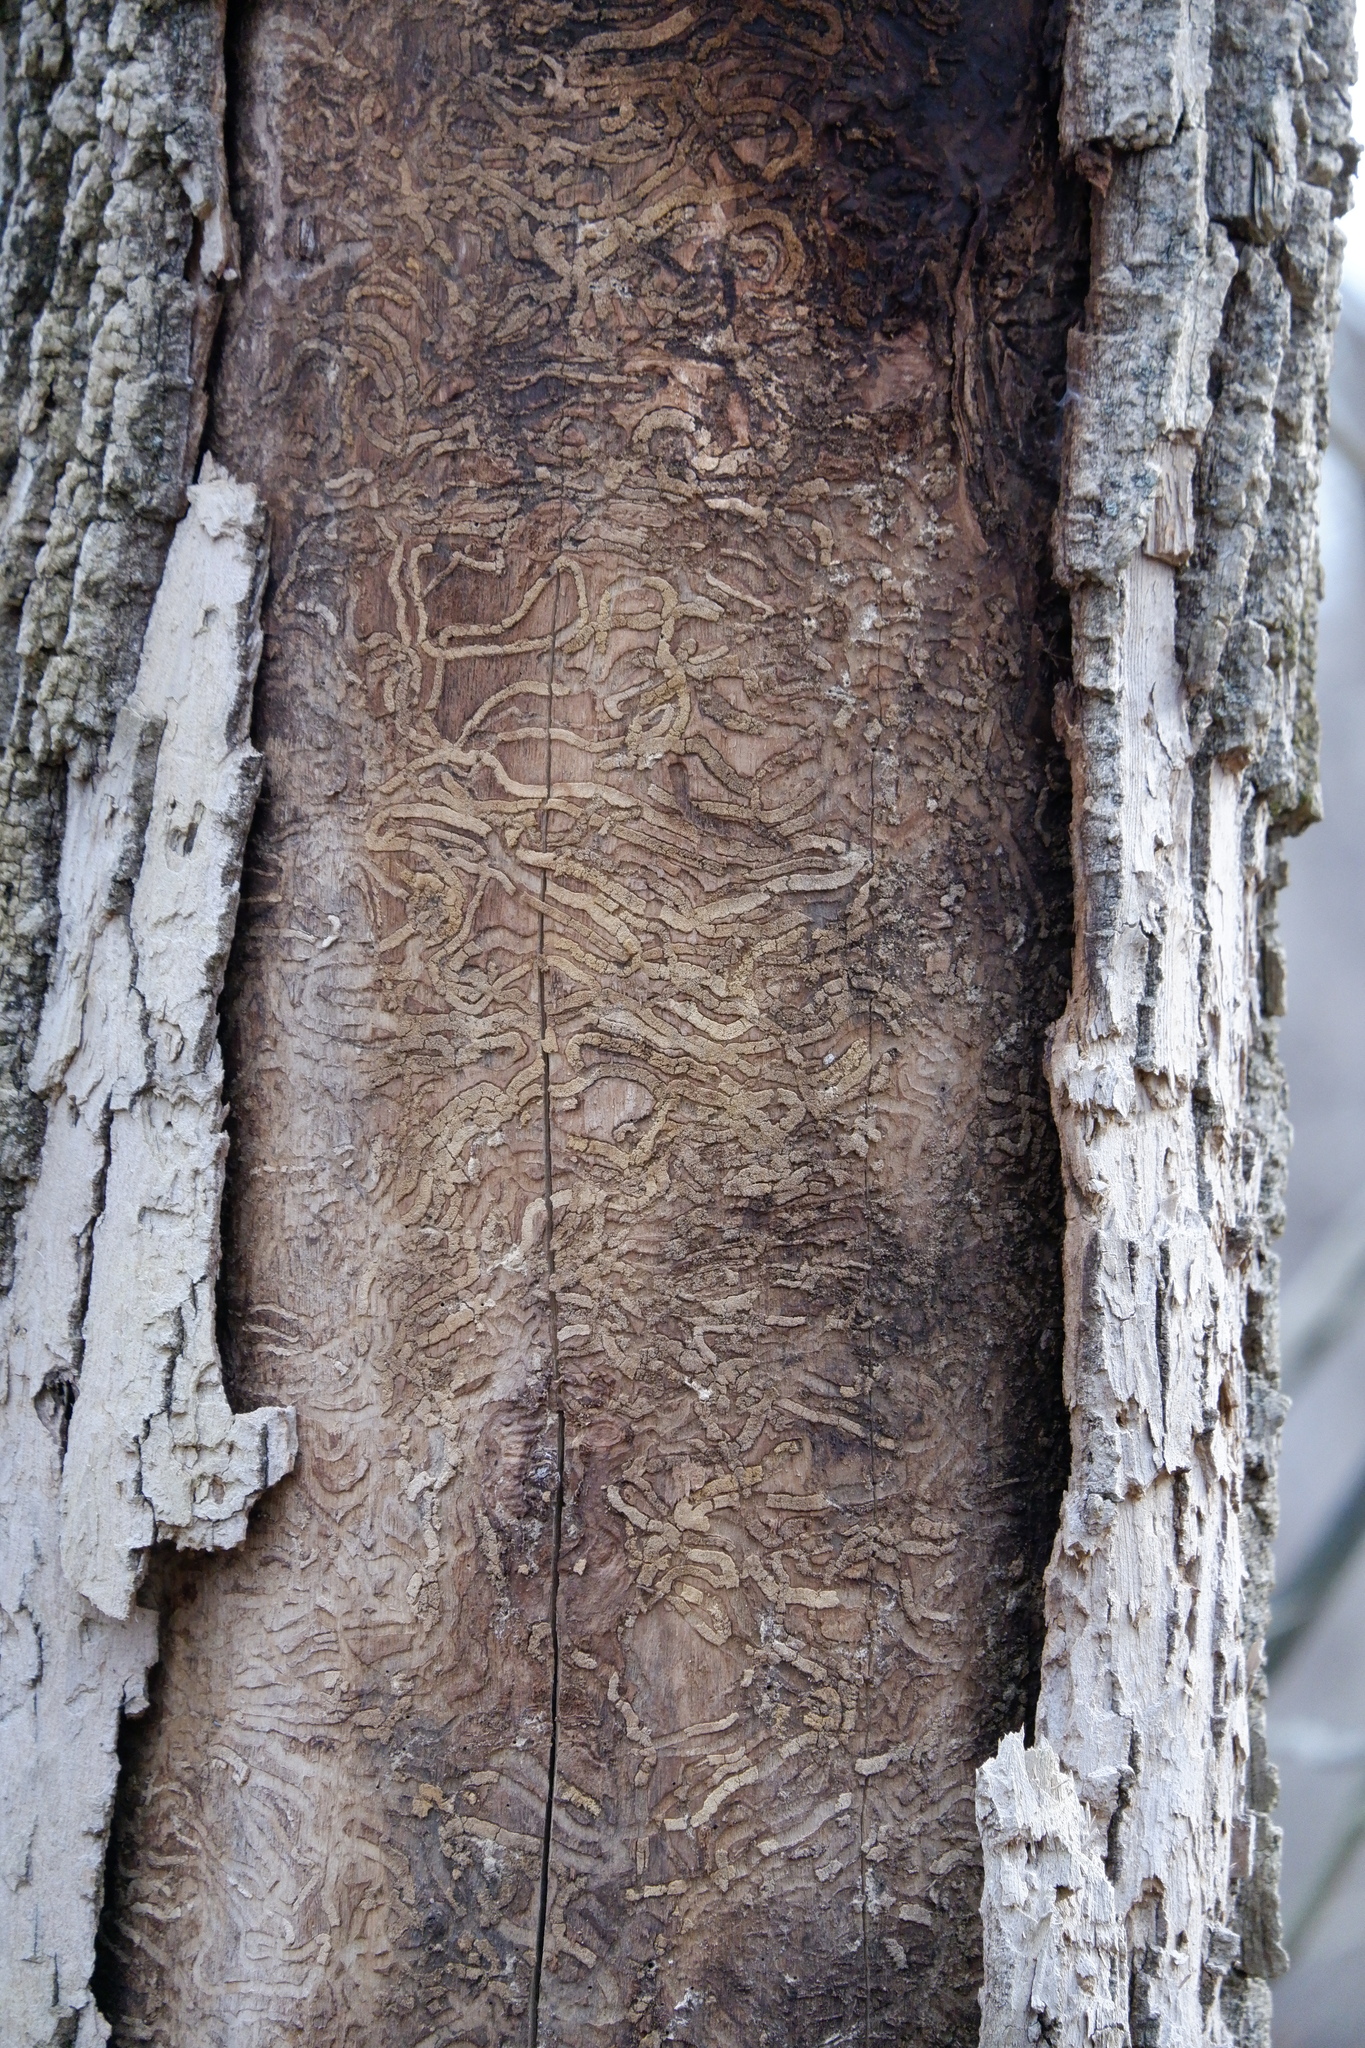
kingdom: Animalia
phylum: Arthropoda
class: Insecta
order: Coleoptera
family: Buprestidae
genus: Agrilus
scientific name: Agrilus planipennis
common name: Emerald ash borer
